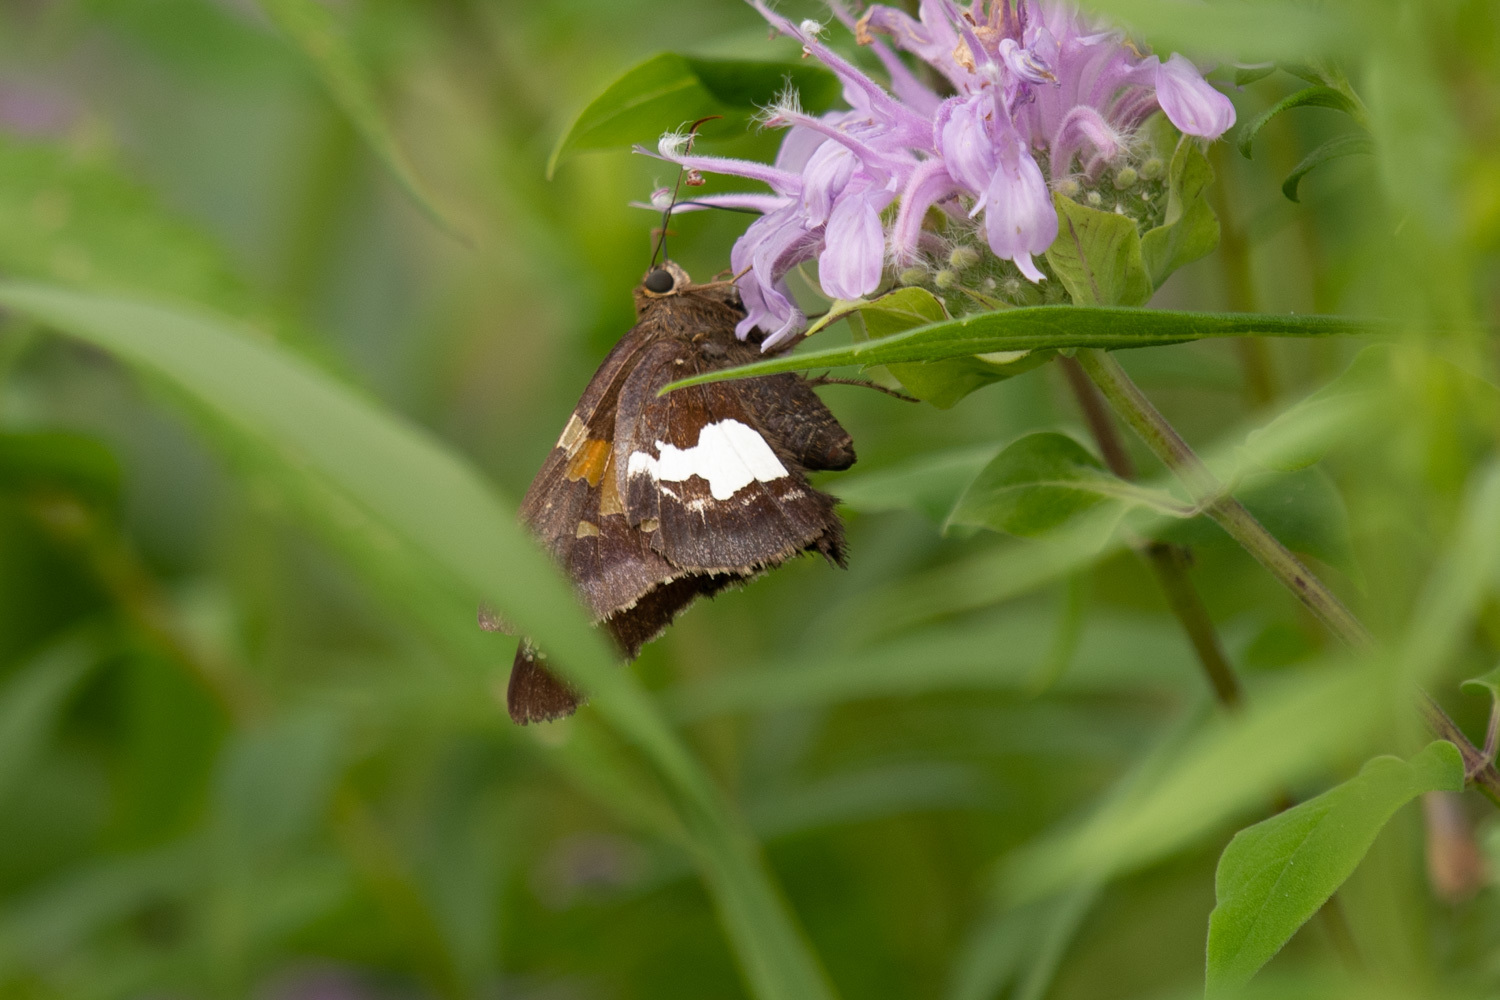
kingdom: Animalia
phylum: Arthropoda
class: Insecta
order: Lepidoptera
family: Hesperiidae
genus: Epargyreus
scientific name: Epargyreus clarus
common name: Silver-spotted skipper
